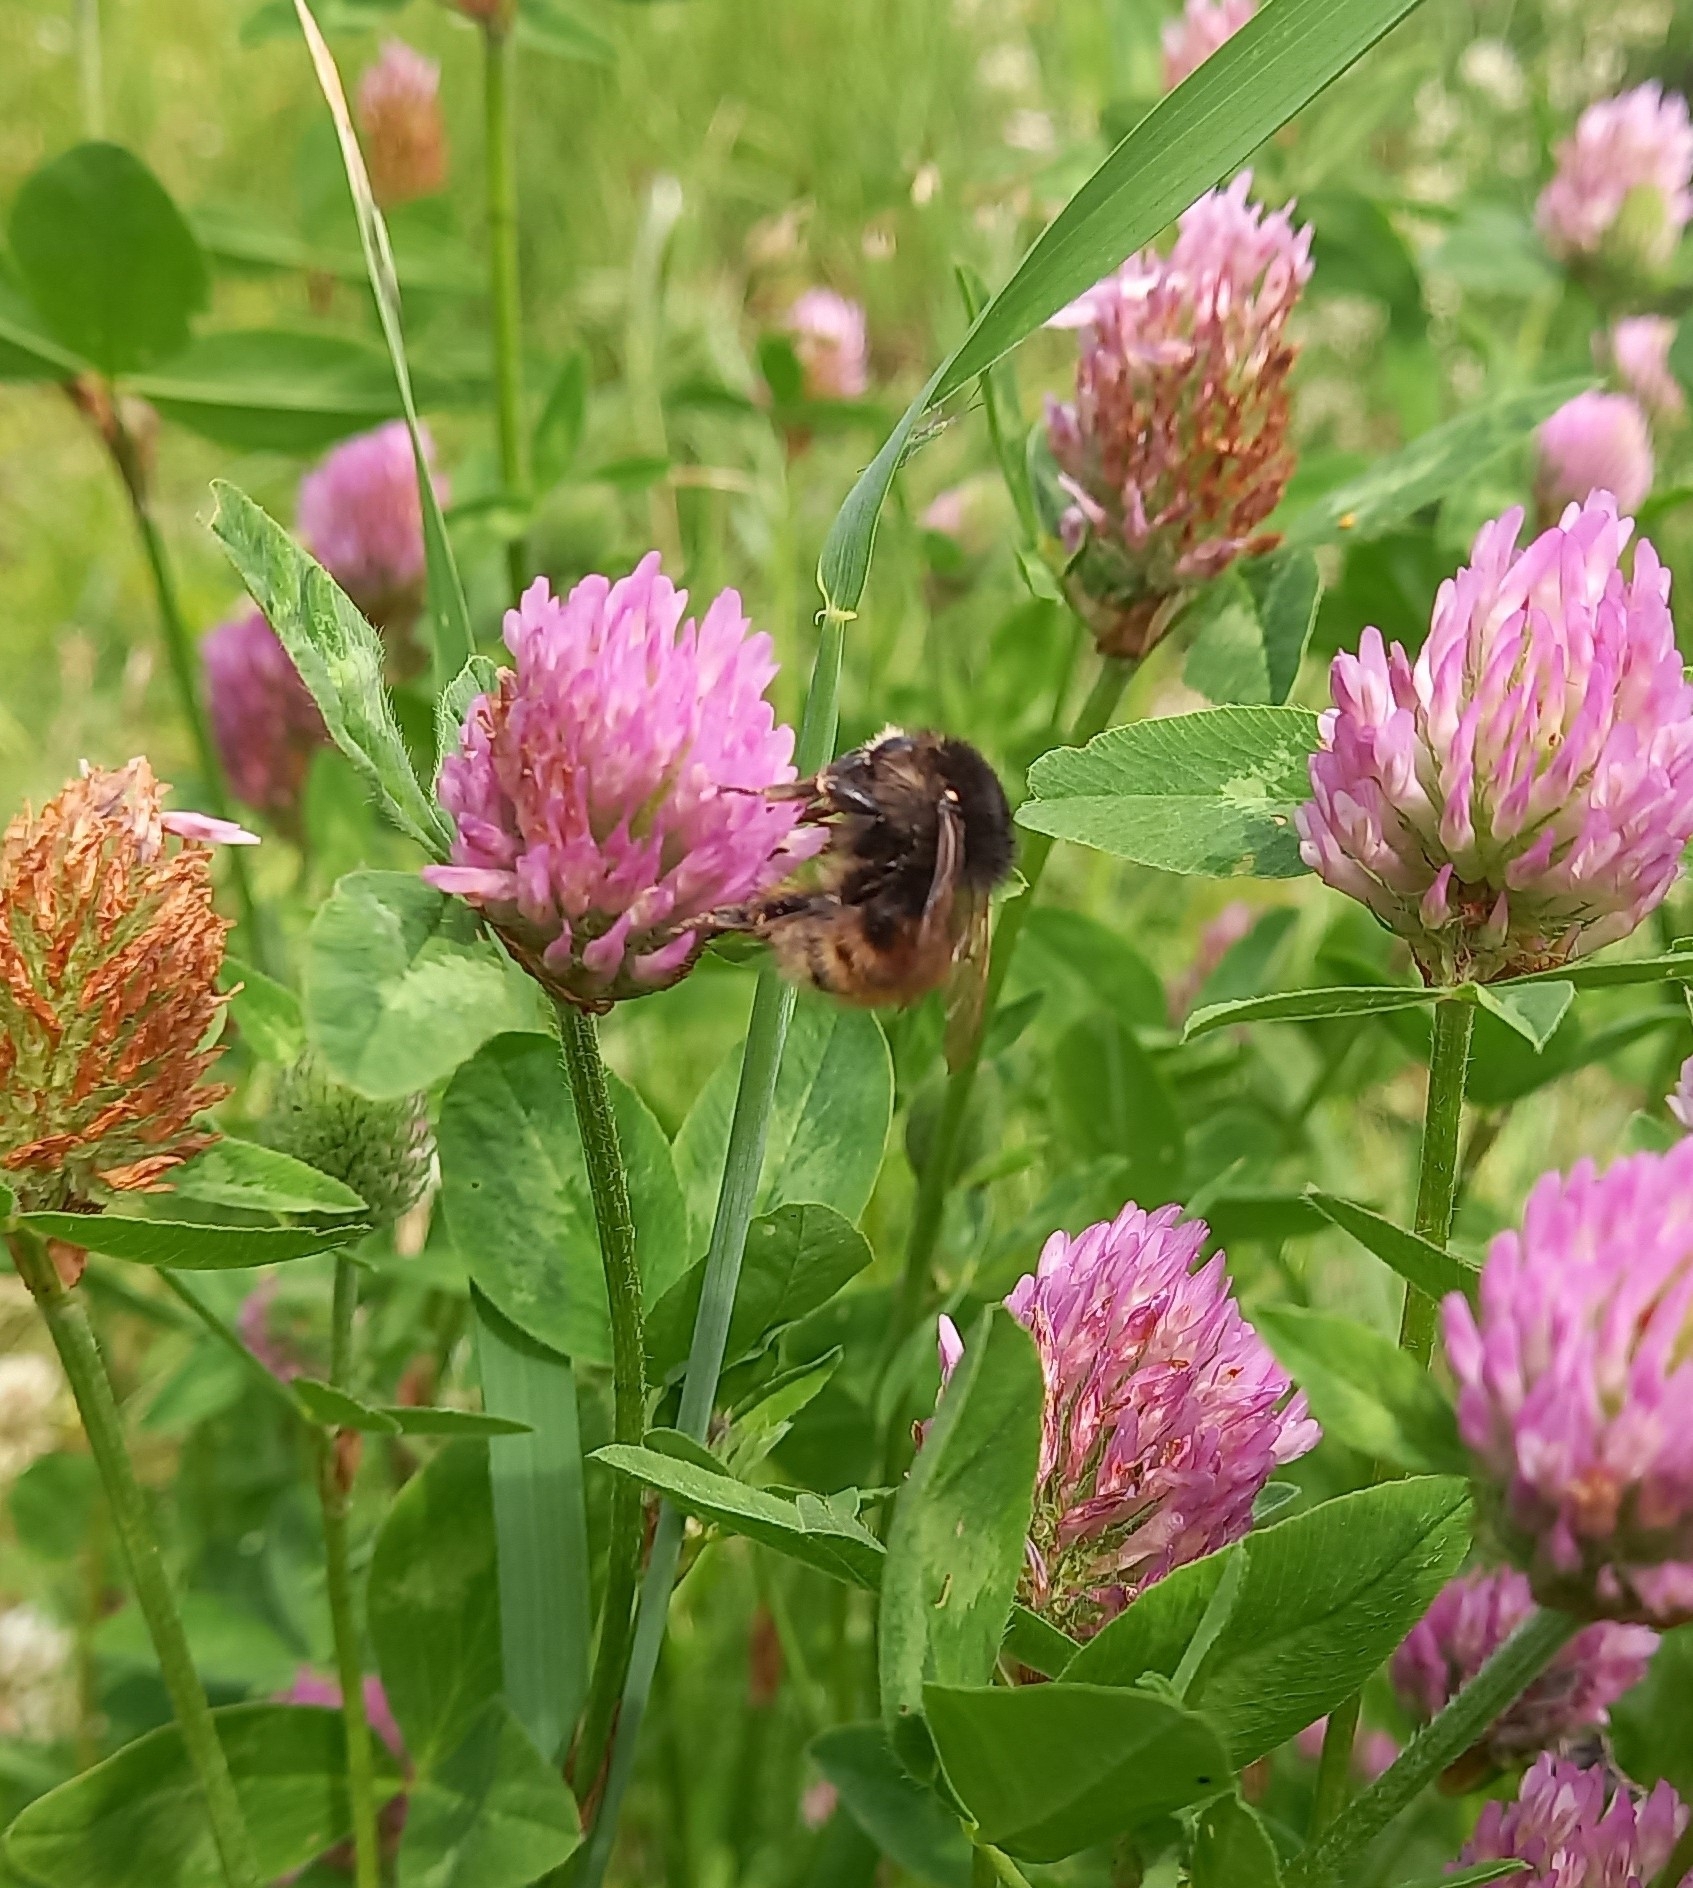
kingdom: Animalia
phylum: Arthropoda
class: Insecta
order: Hymenoptera
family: Apidae
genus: Bombus
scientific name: Bombus humilis
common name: Brown-banded carder-bee
